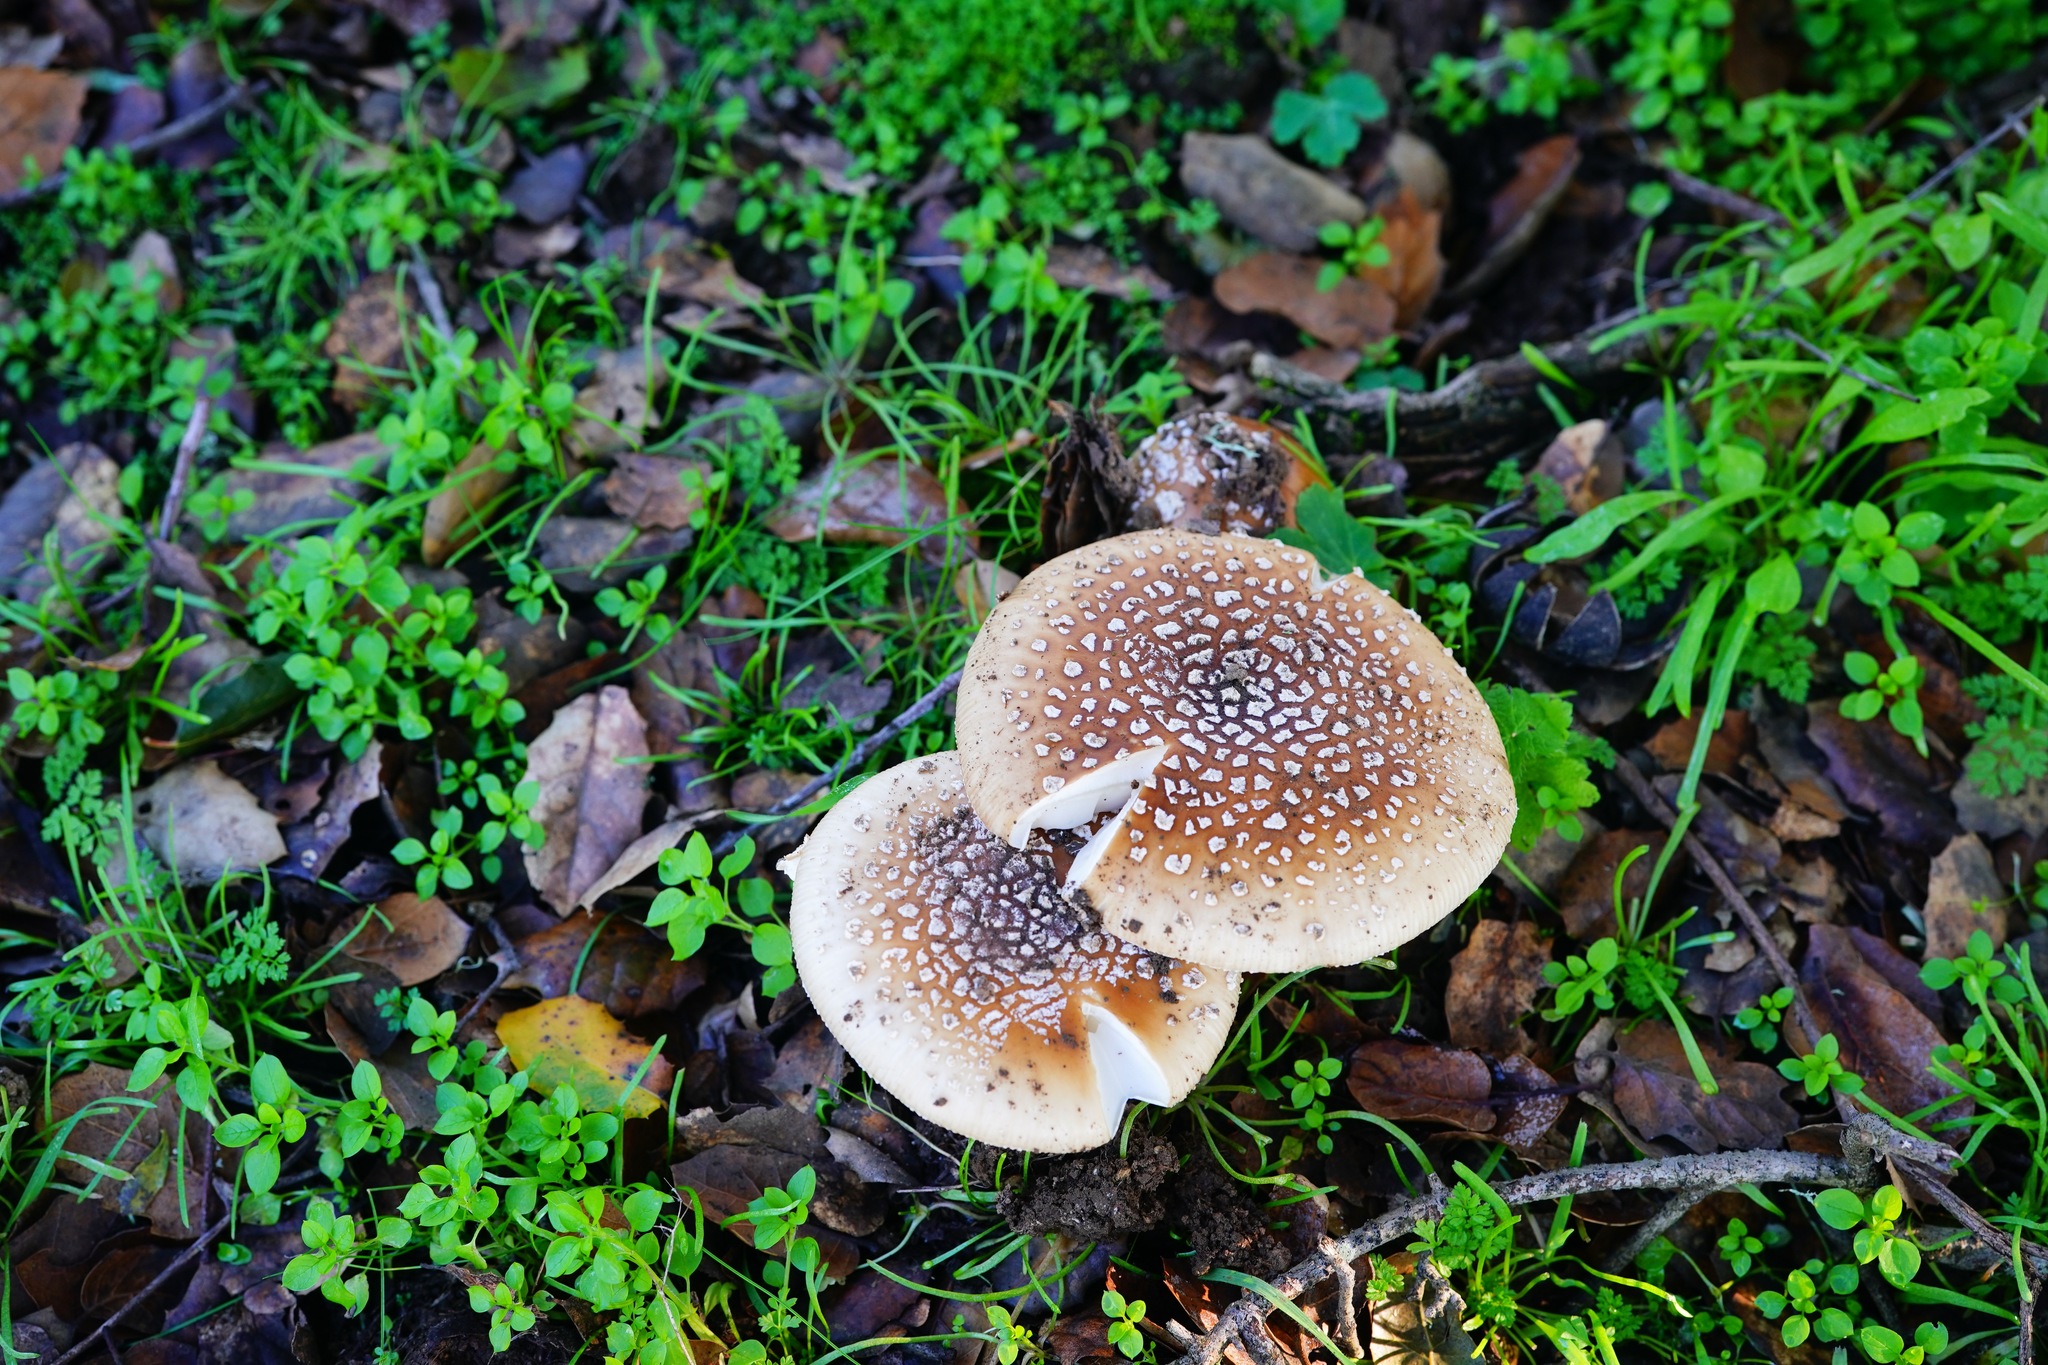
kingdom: Fungi
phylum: Basidiomycota
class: Agaricomycetes
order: Agaricales
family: Amanitaceae
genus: Amanita
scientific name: Amanita pantherinoides
